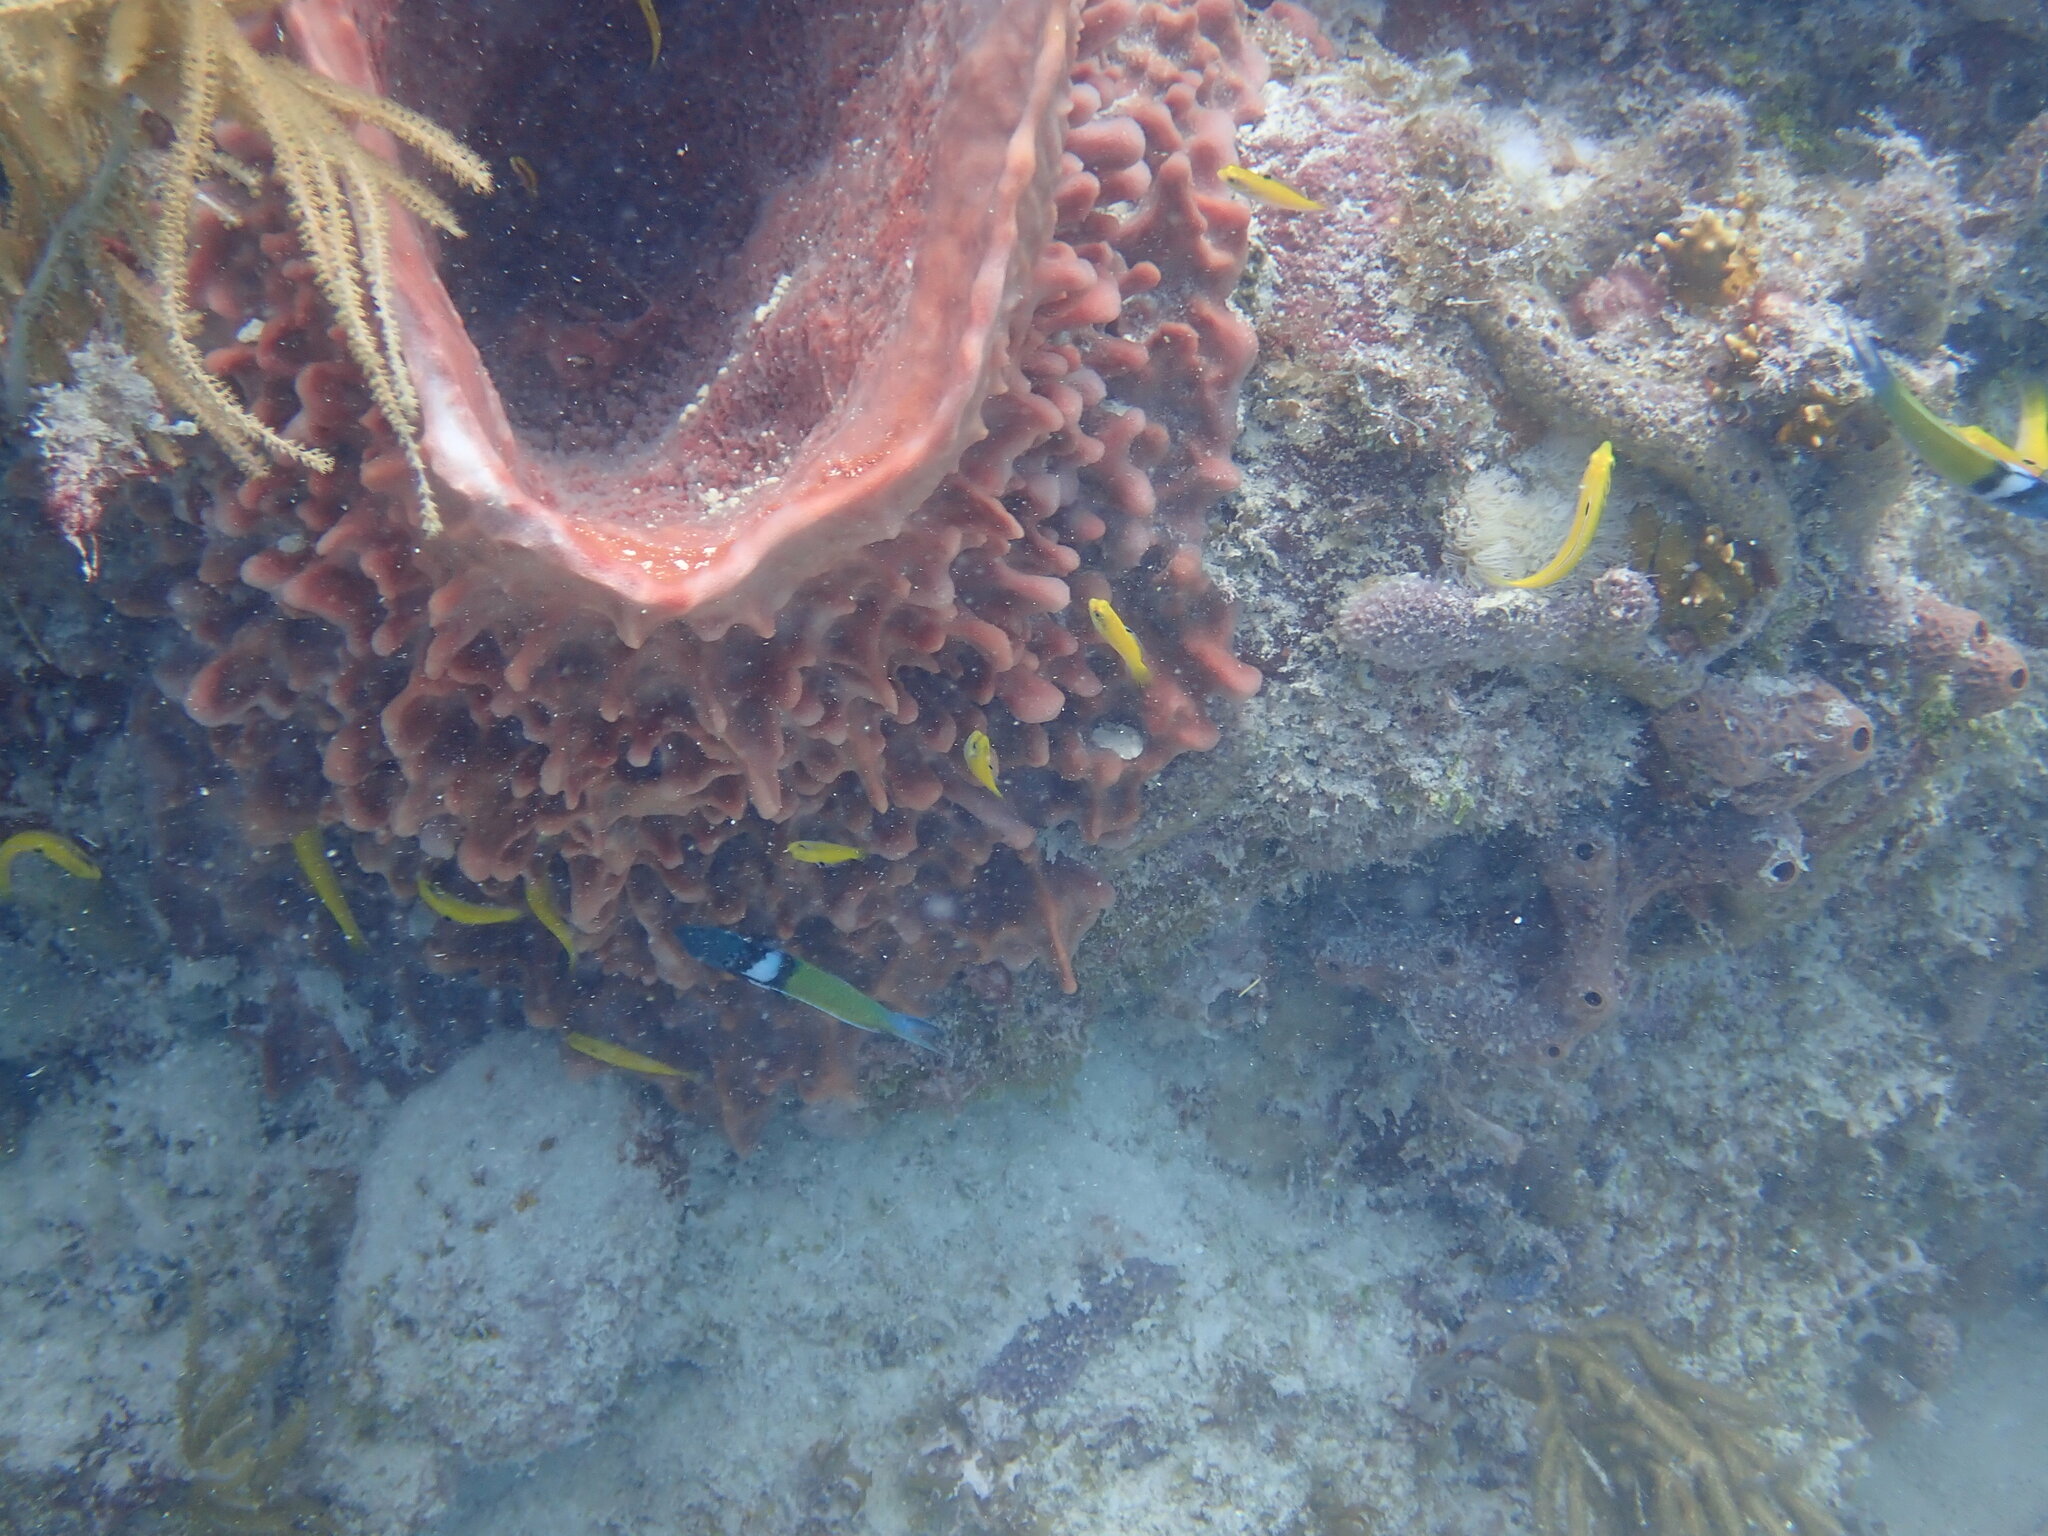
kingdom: Animalia
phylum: Chordata
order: Perciformes
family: Labridae
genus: Thalassoma
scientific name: Thalassoma bifasciatum
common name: Bluehead wrasse
